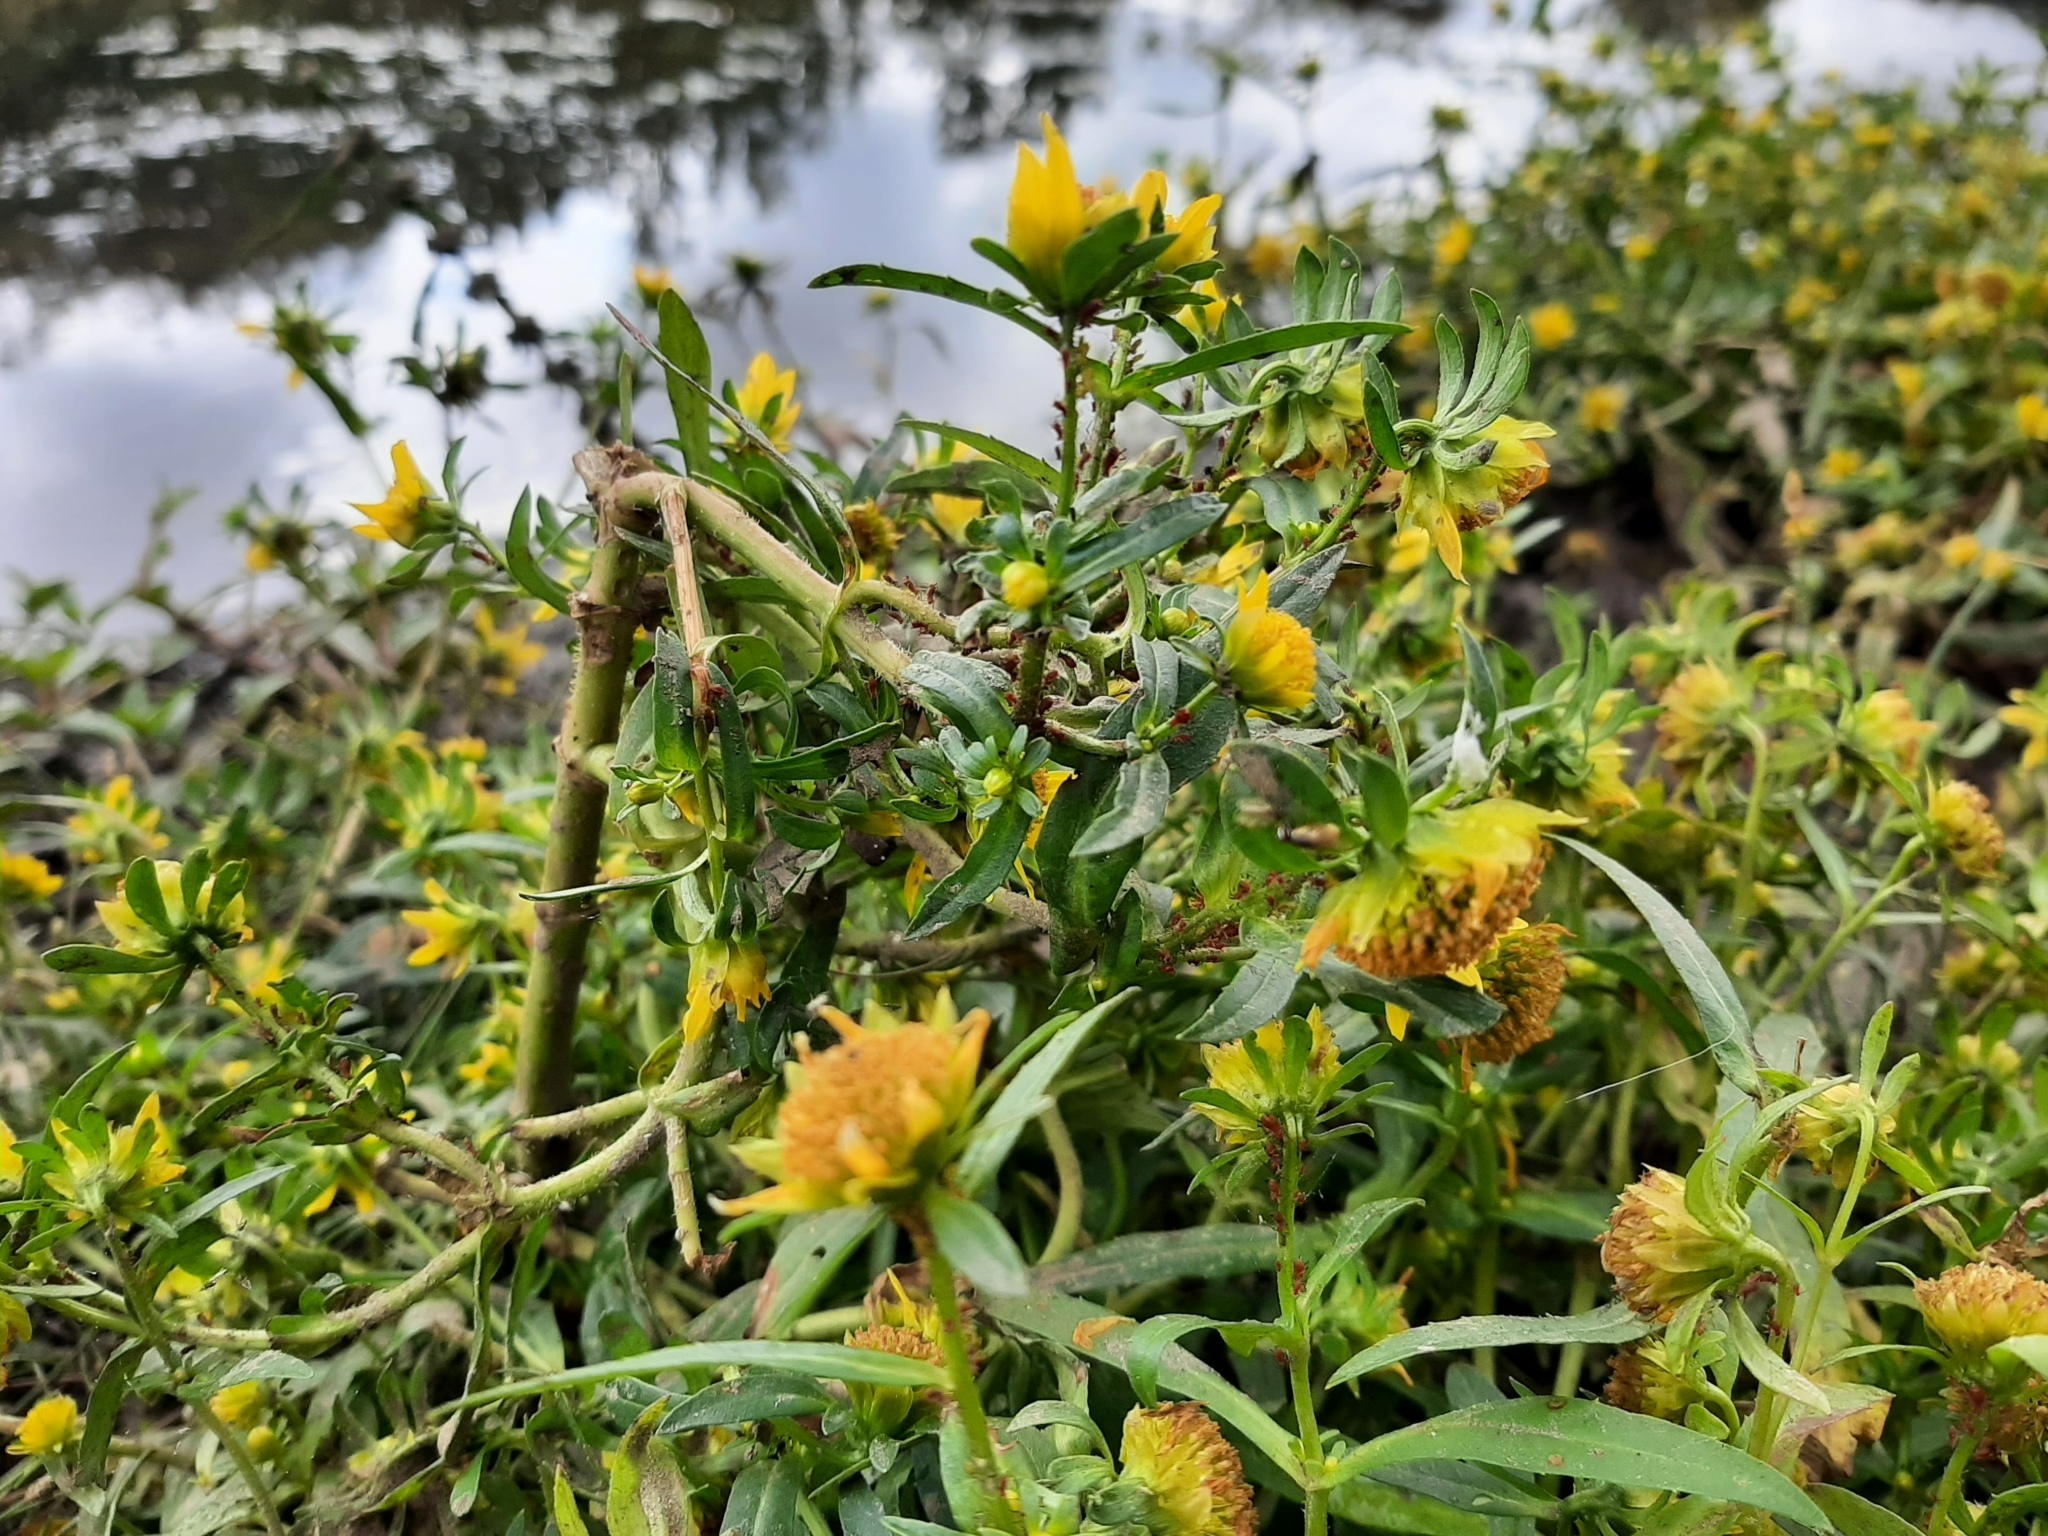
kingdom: Plantae
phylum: Tracheophyta
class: Magnoliopsida
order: Asterales
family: Asteraceae
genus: Bidens
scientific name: Bidens cernua
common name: Nodding bur-marigold
